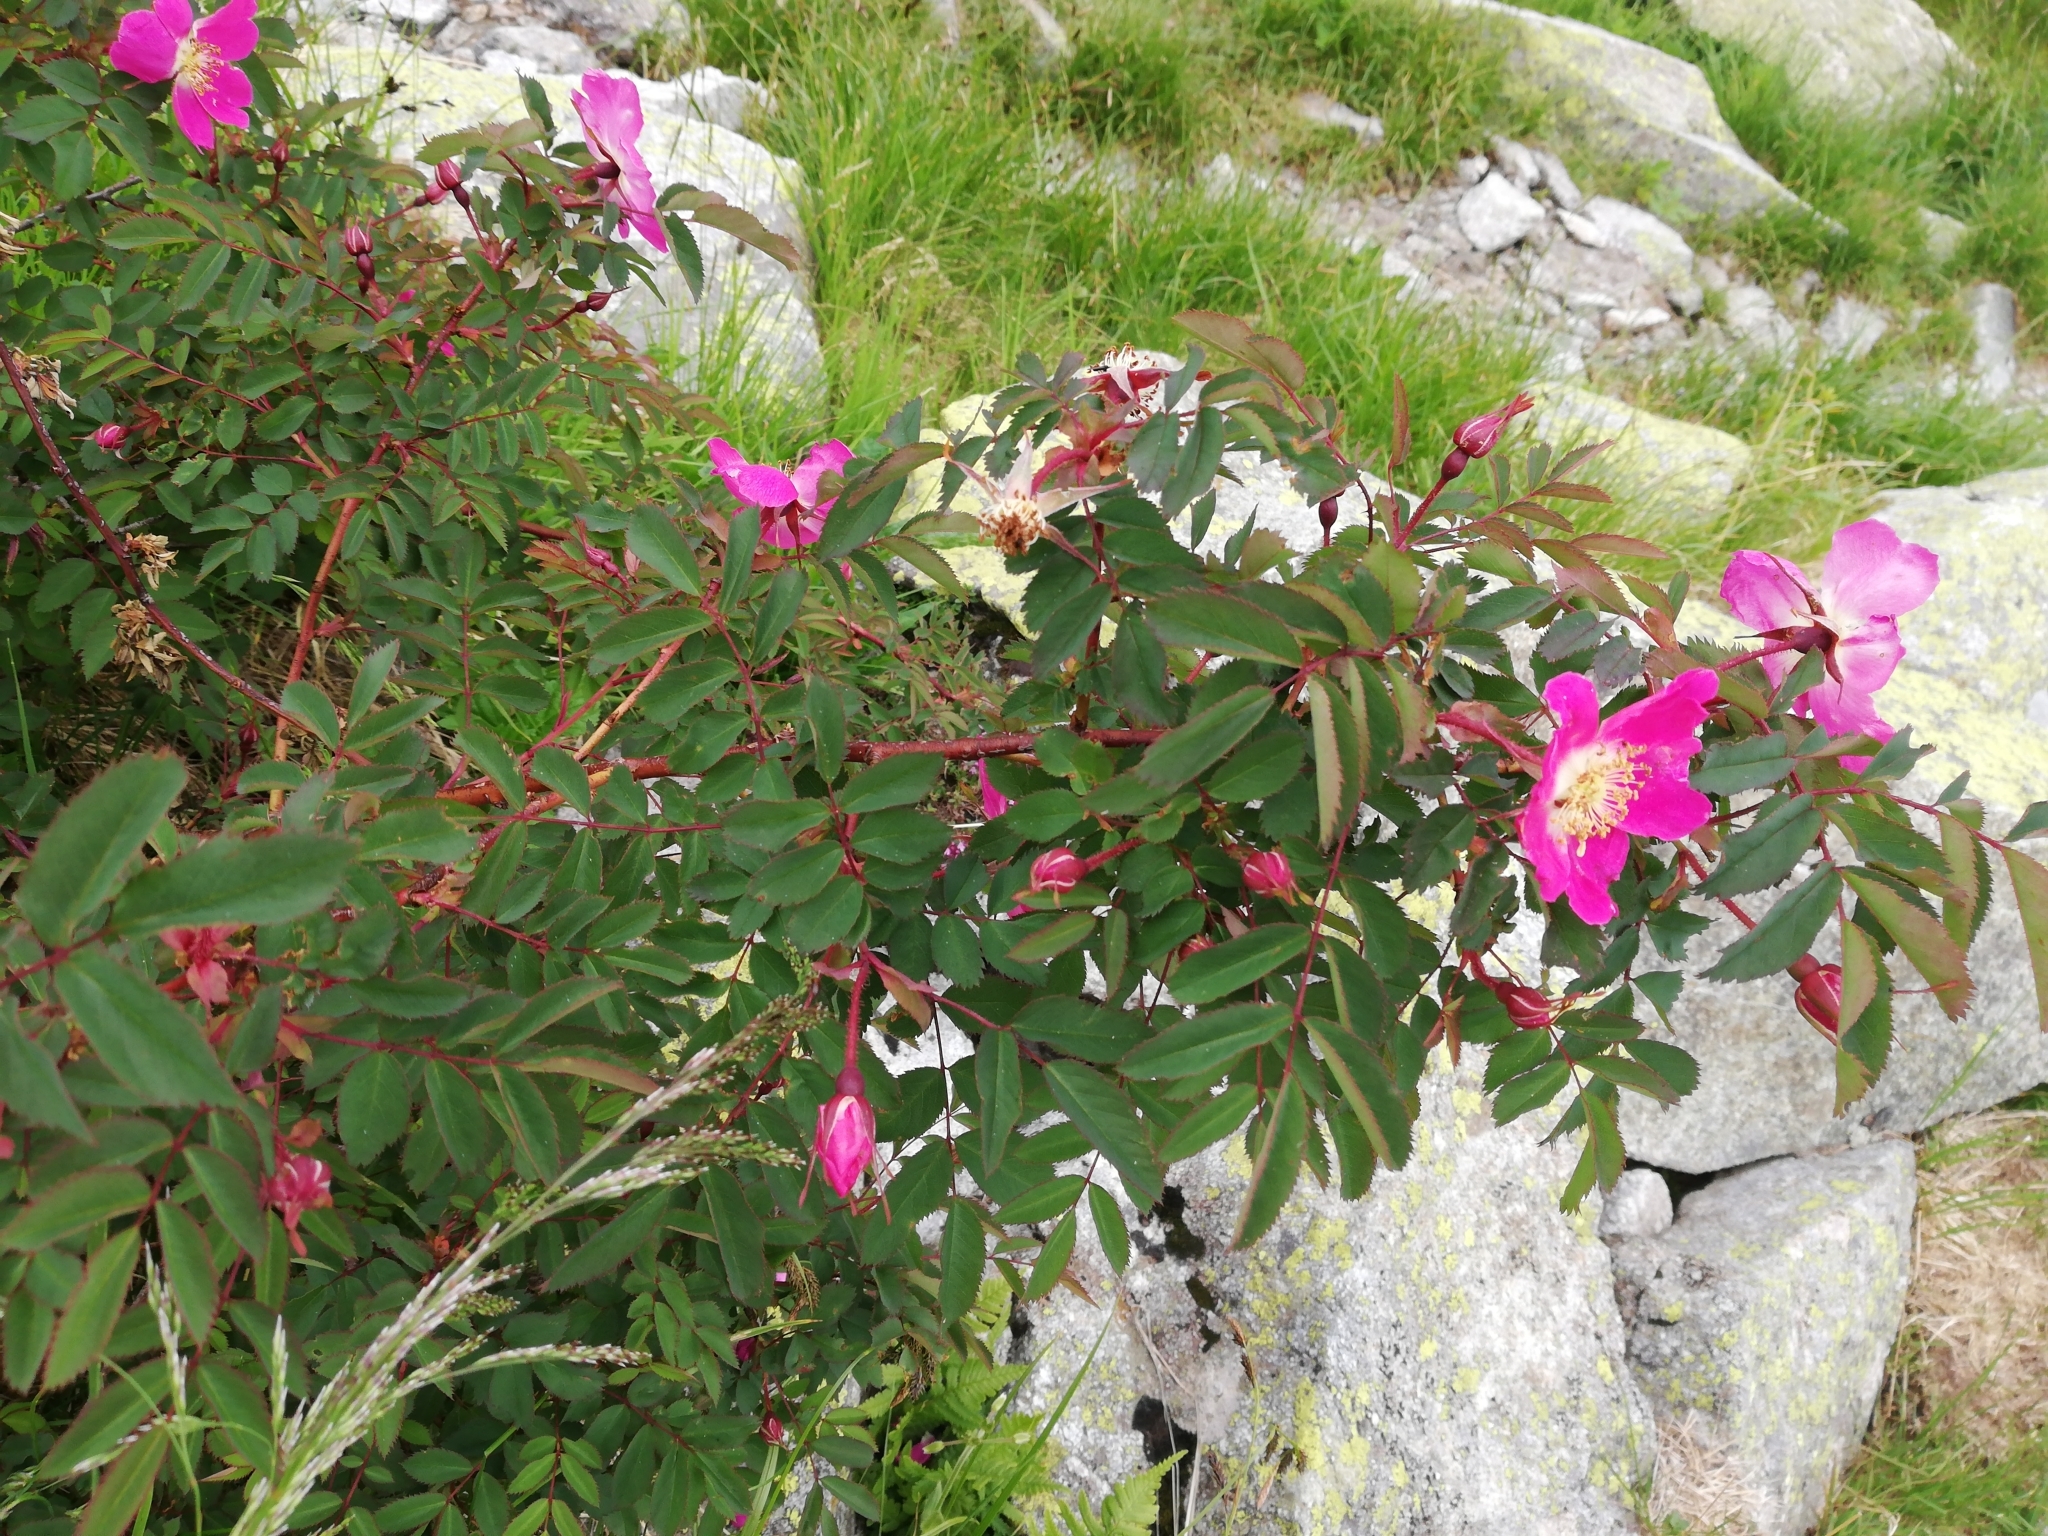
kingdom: Plantae
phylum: Tracheophyta
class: Magnoliopsida
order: Rosales
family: Rosaceae
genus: Rosa
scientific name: Rosa pendulina
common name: Alpine rose
